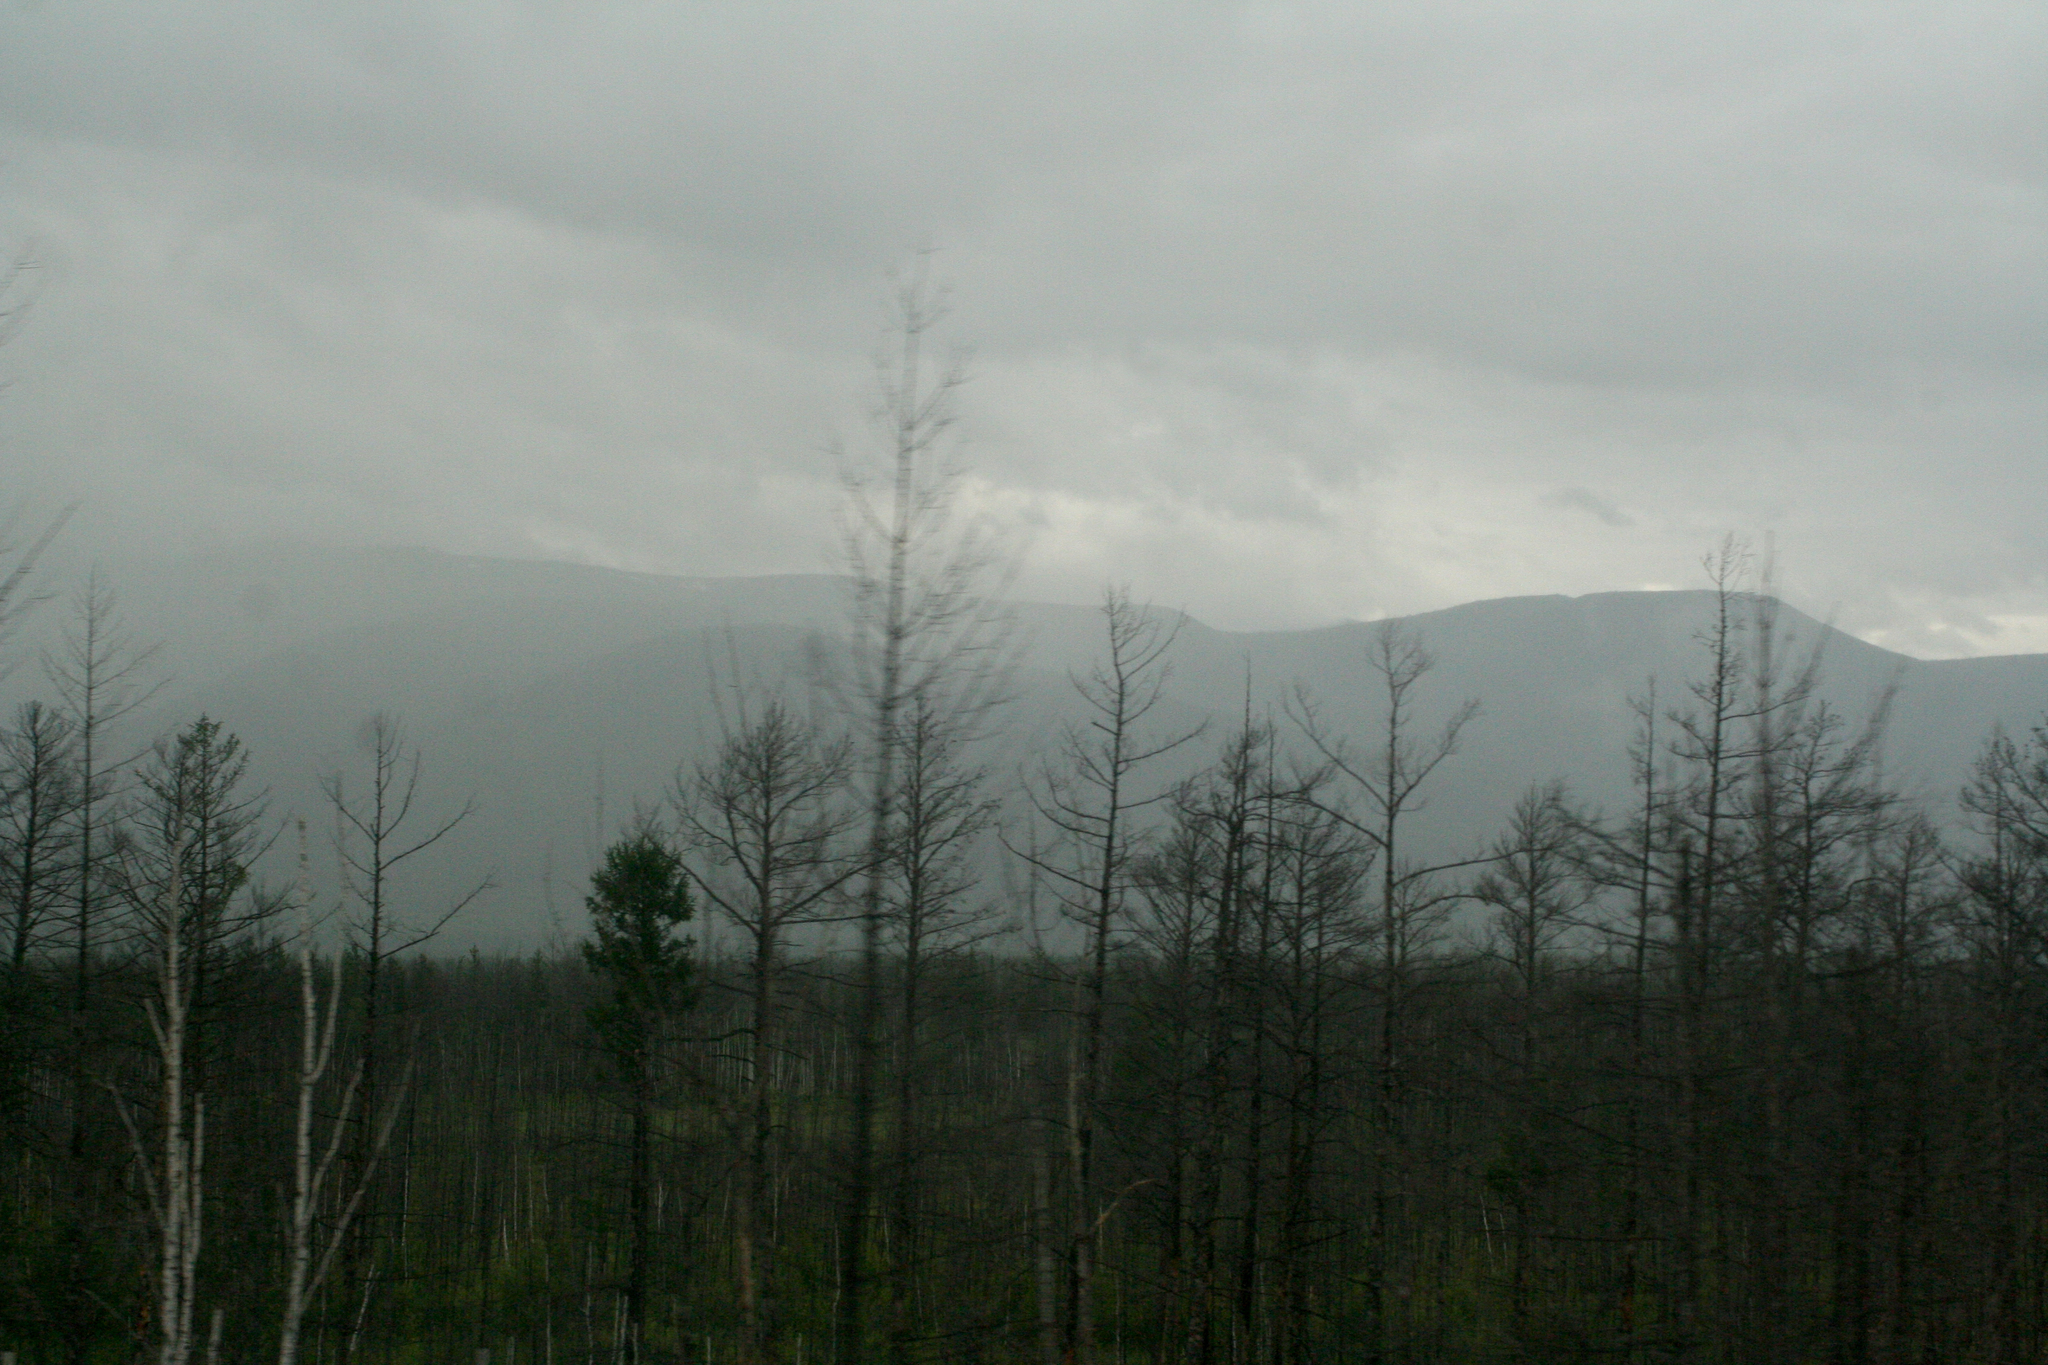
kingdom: Plantae
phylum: Tracheophyta
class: Pinopsida
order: Pinales
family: Pinaceae
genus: Larix
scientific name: Larix gmelinii
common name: Dahurian larch
